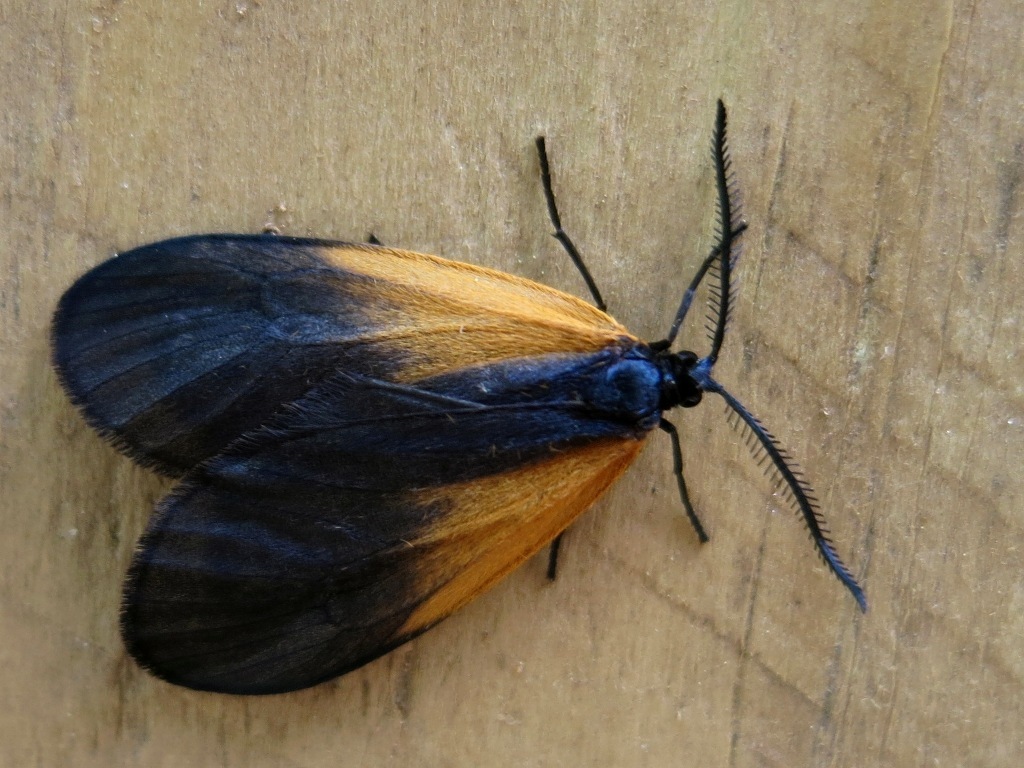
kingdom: Animalia
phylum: Arthropoda
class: Insecta
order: Lepidoptera
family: Zygaenidae
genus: Malthaca
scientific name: Malthaca dimidiata
